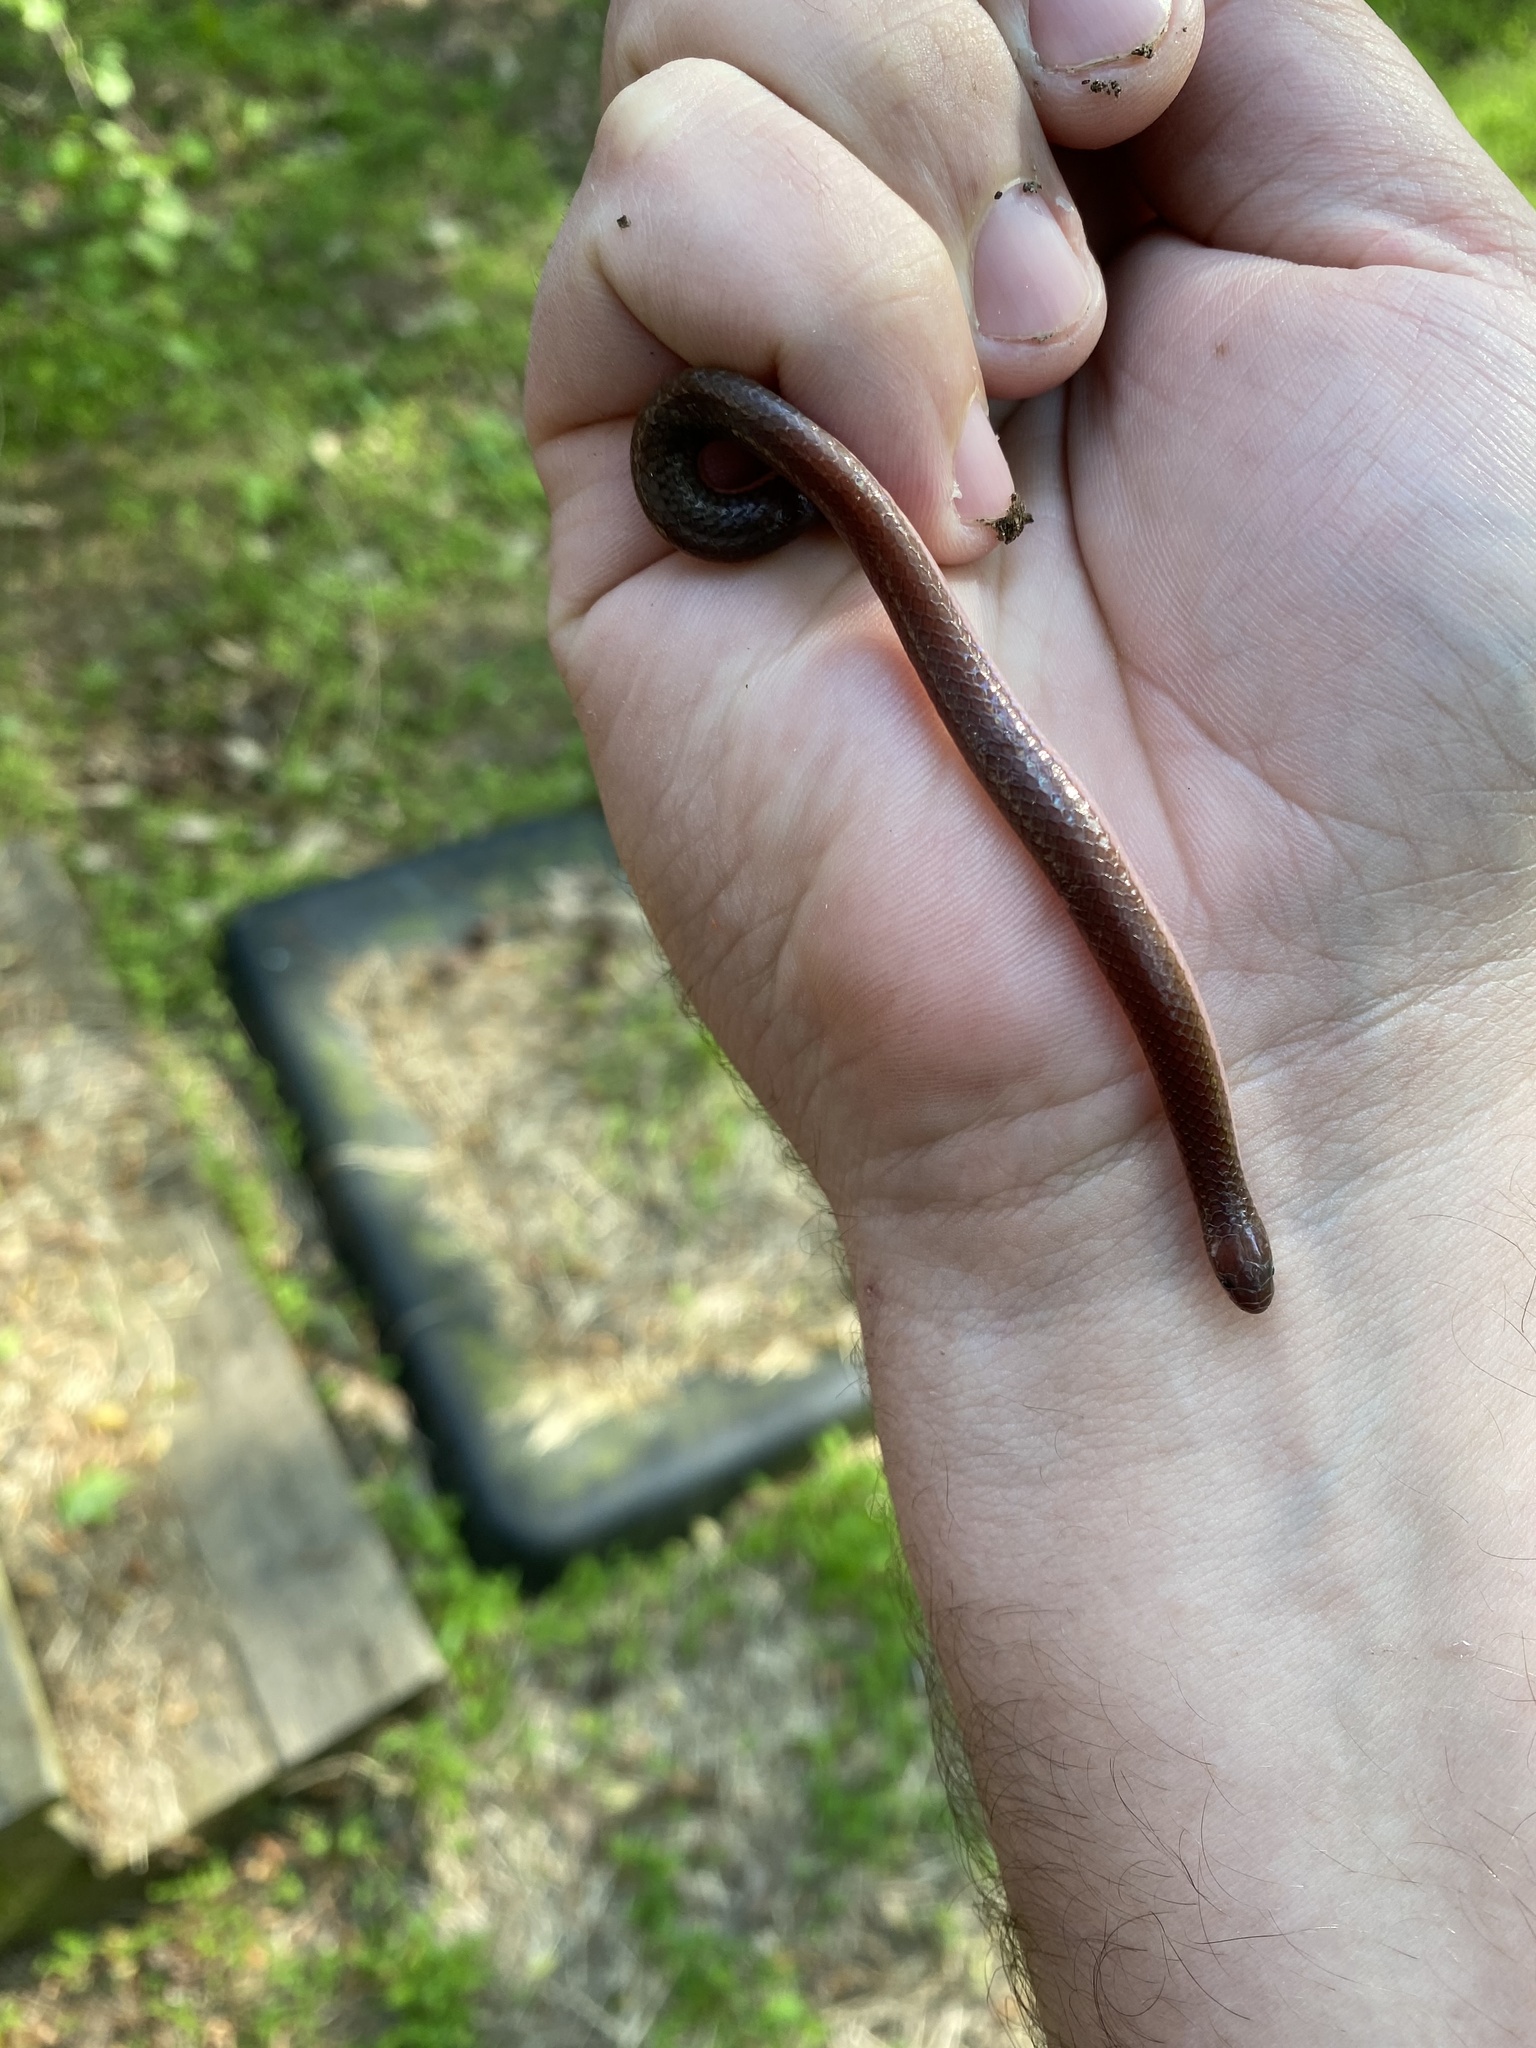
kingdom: Animalia
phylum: Chordata
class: Squamata
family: Colubridae
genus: Carphophis
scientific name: Carphophis amoenus
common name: Eastern worm snake
